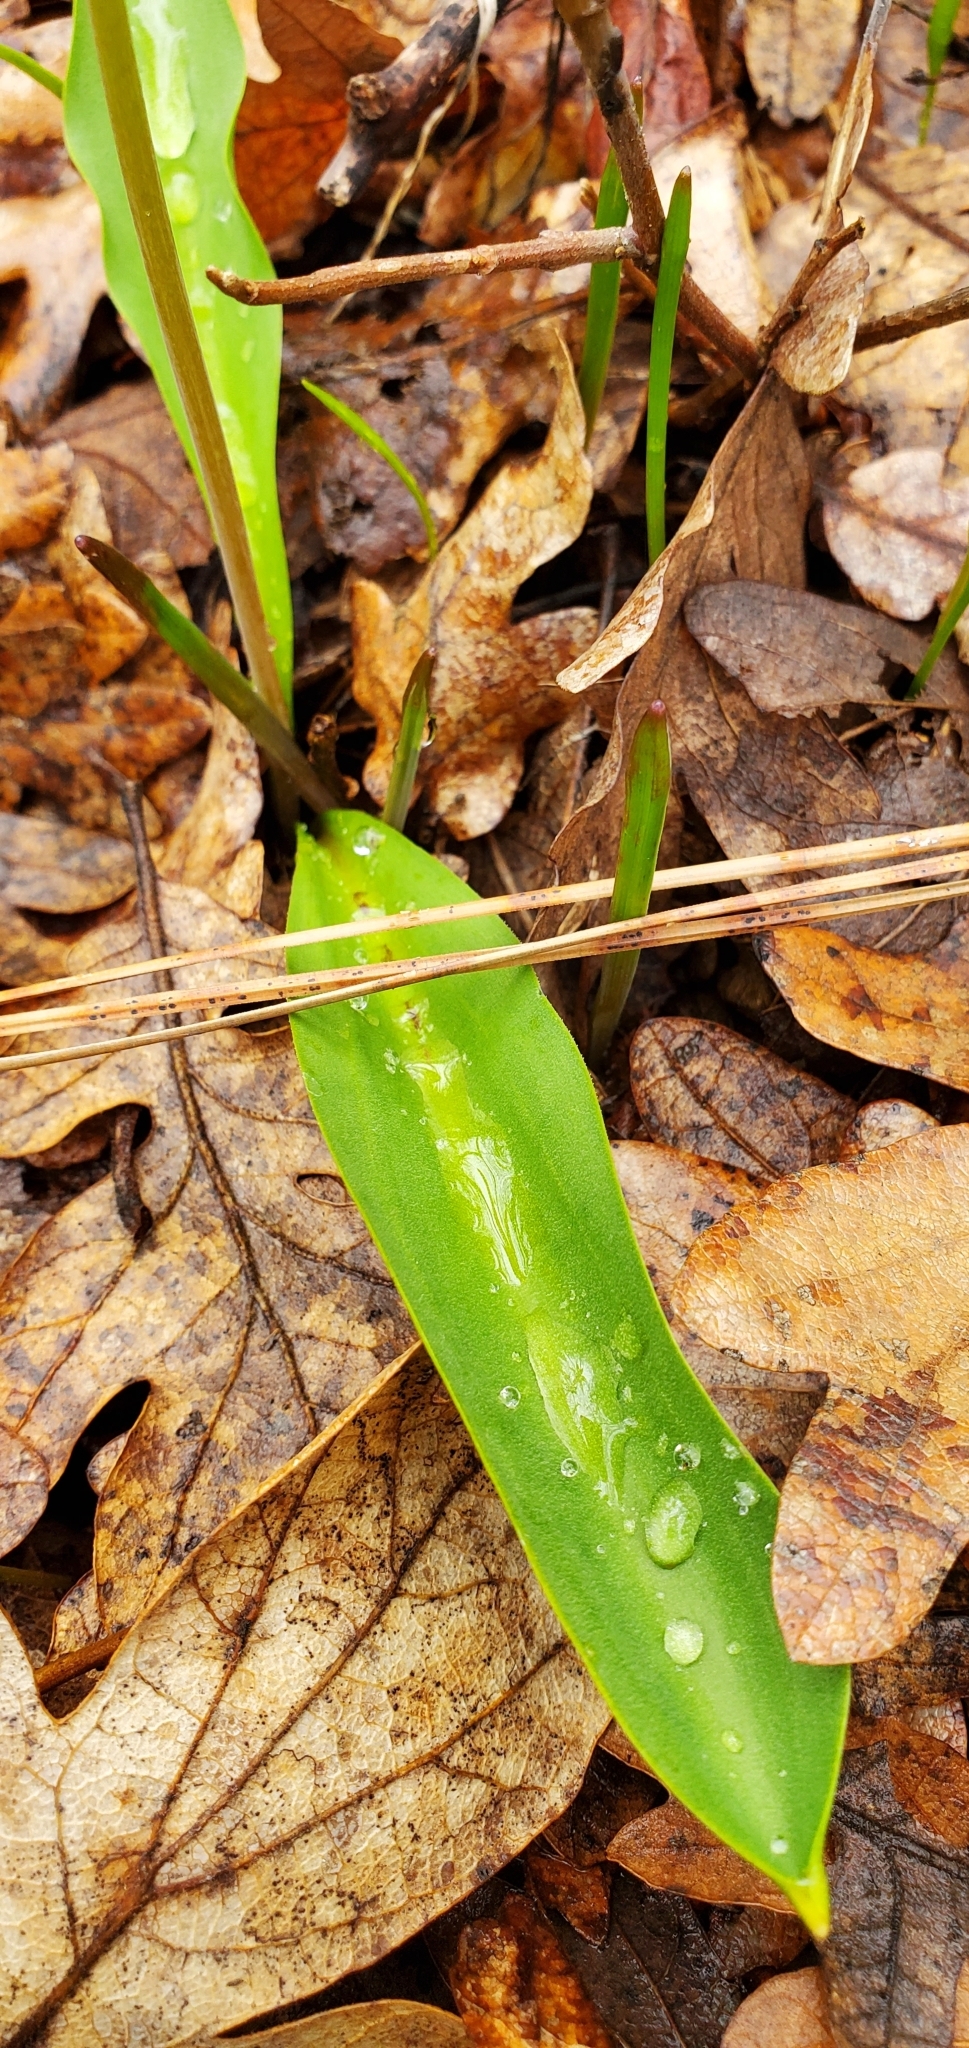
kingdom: Plantae
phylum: Tracheophyta
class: Liliopsida
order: Liliales
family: Liliaceae
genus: Erythronium
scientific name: Erythronium grandiflorum
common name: Avalanche-lily
